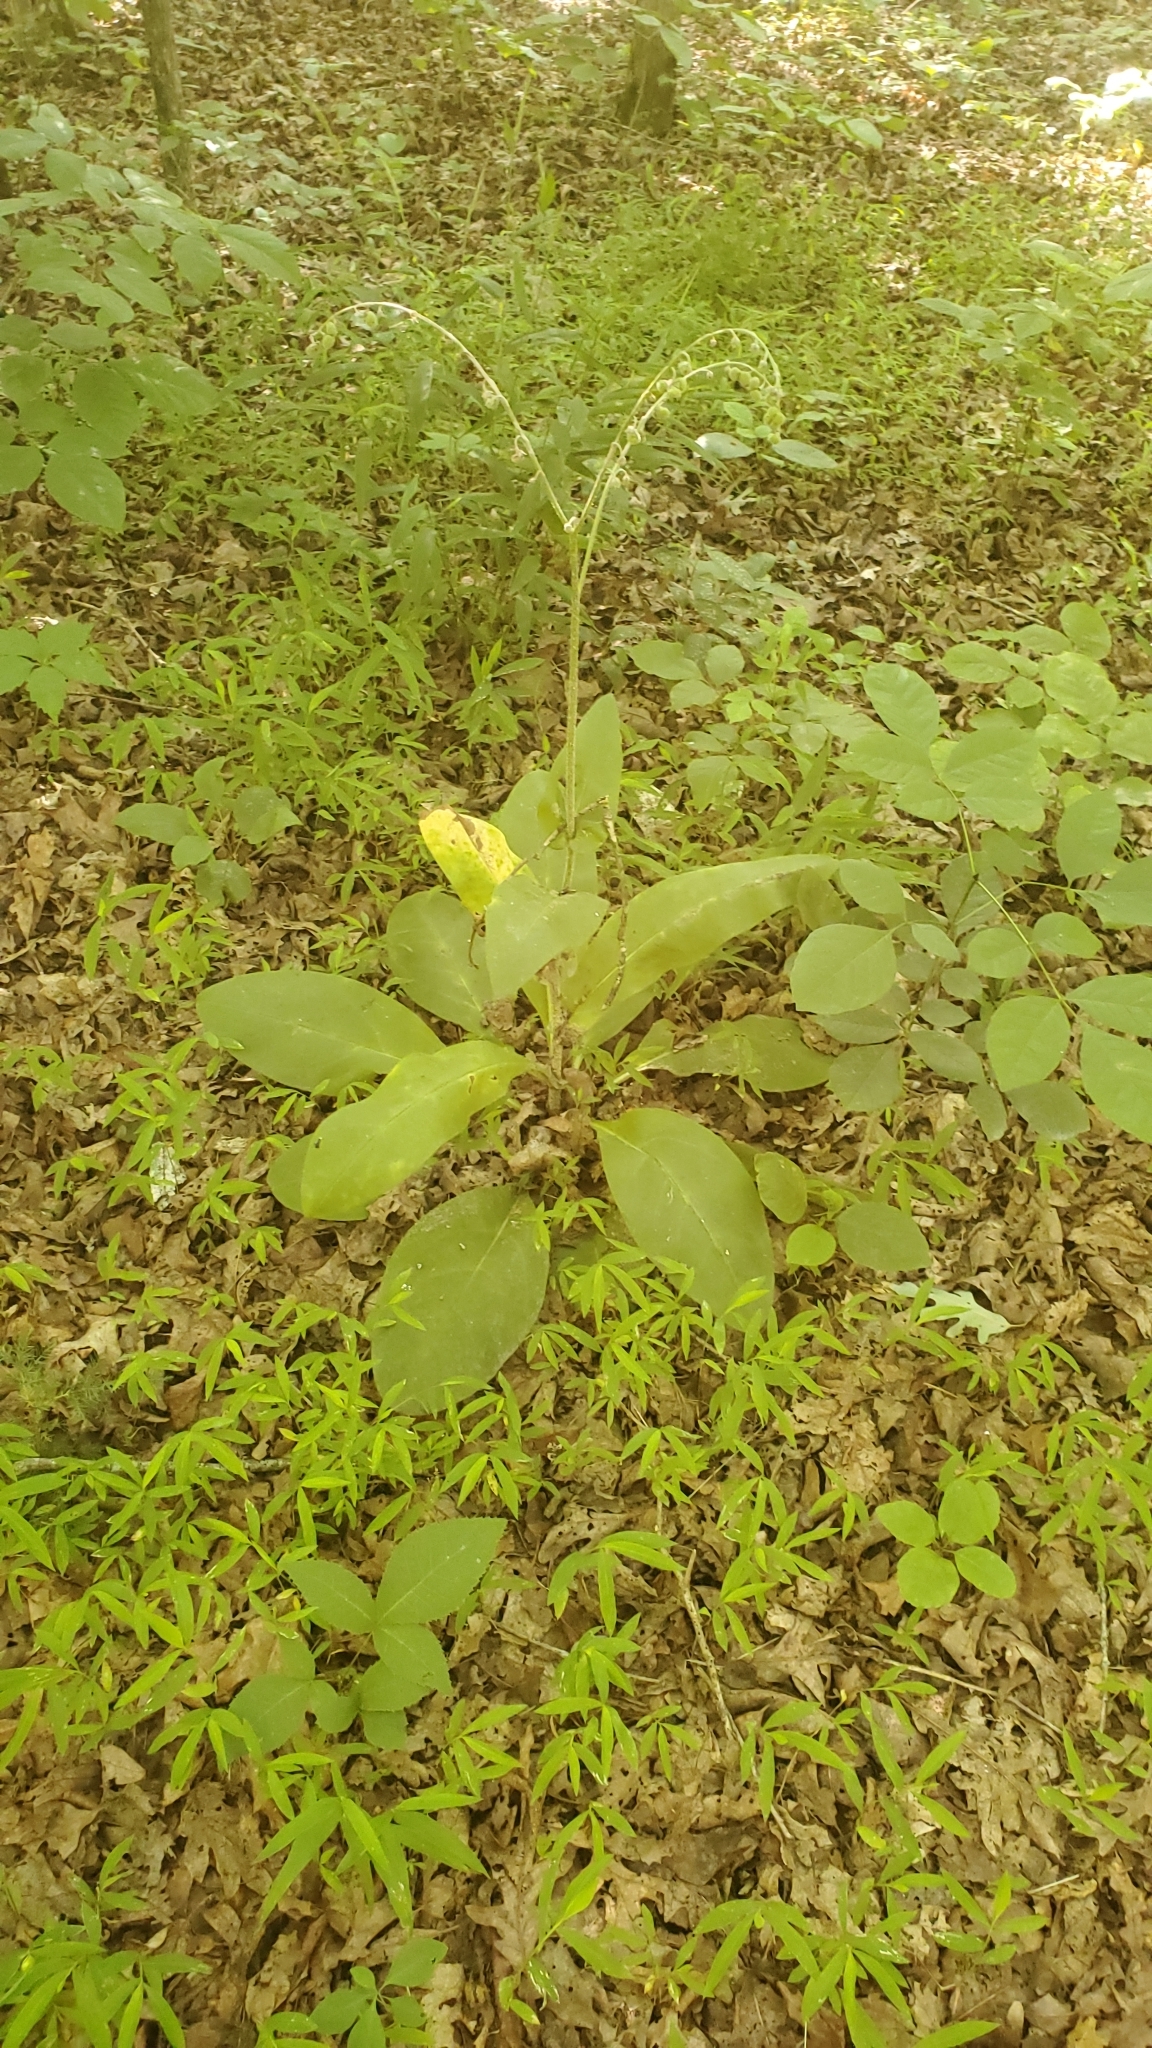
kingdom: Plantae
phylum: Tracheophyta
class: Magnoliopsida
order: Boraginales
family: Boraginaceae
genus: Andersonglossum
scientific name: Andersonglossum virginianum
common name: Wild comfrey
